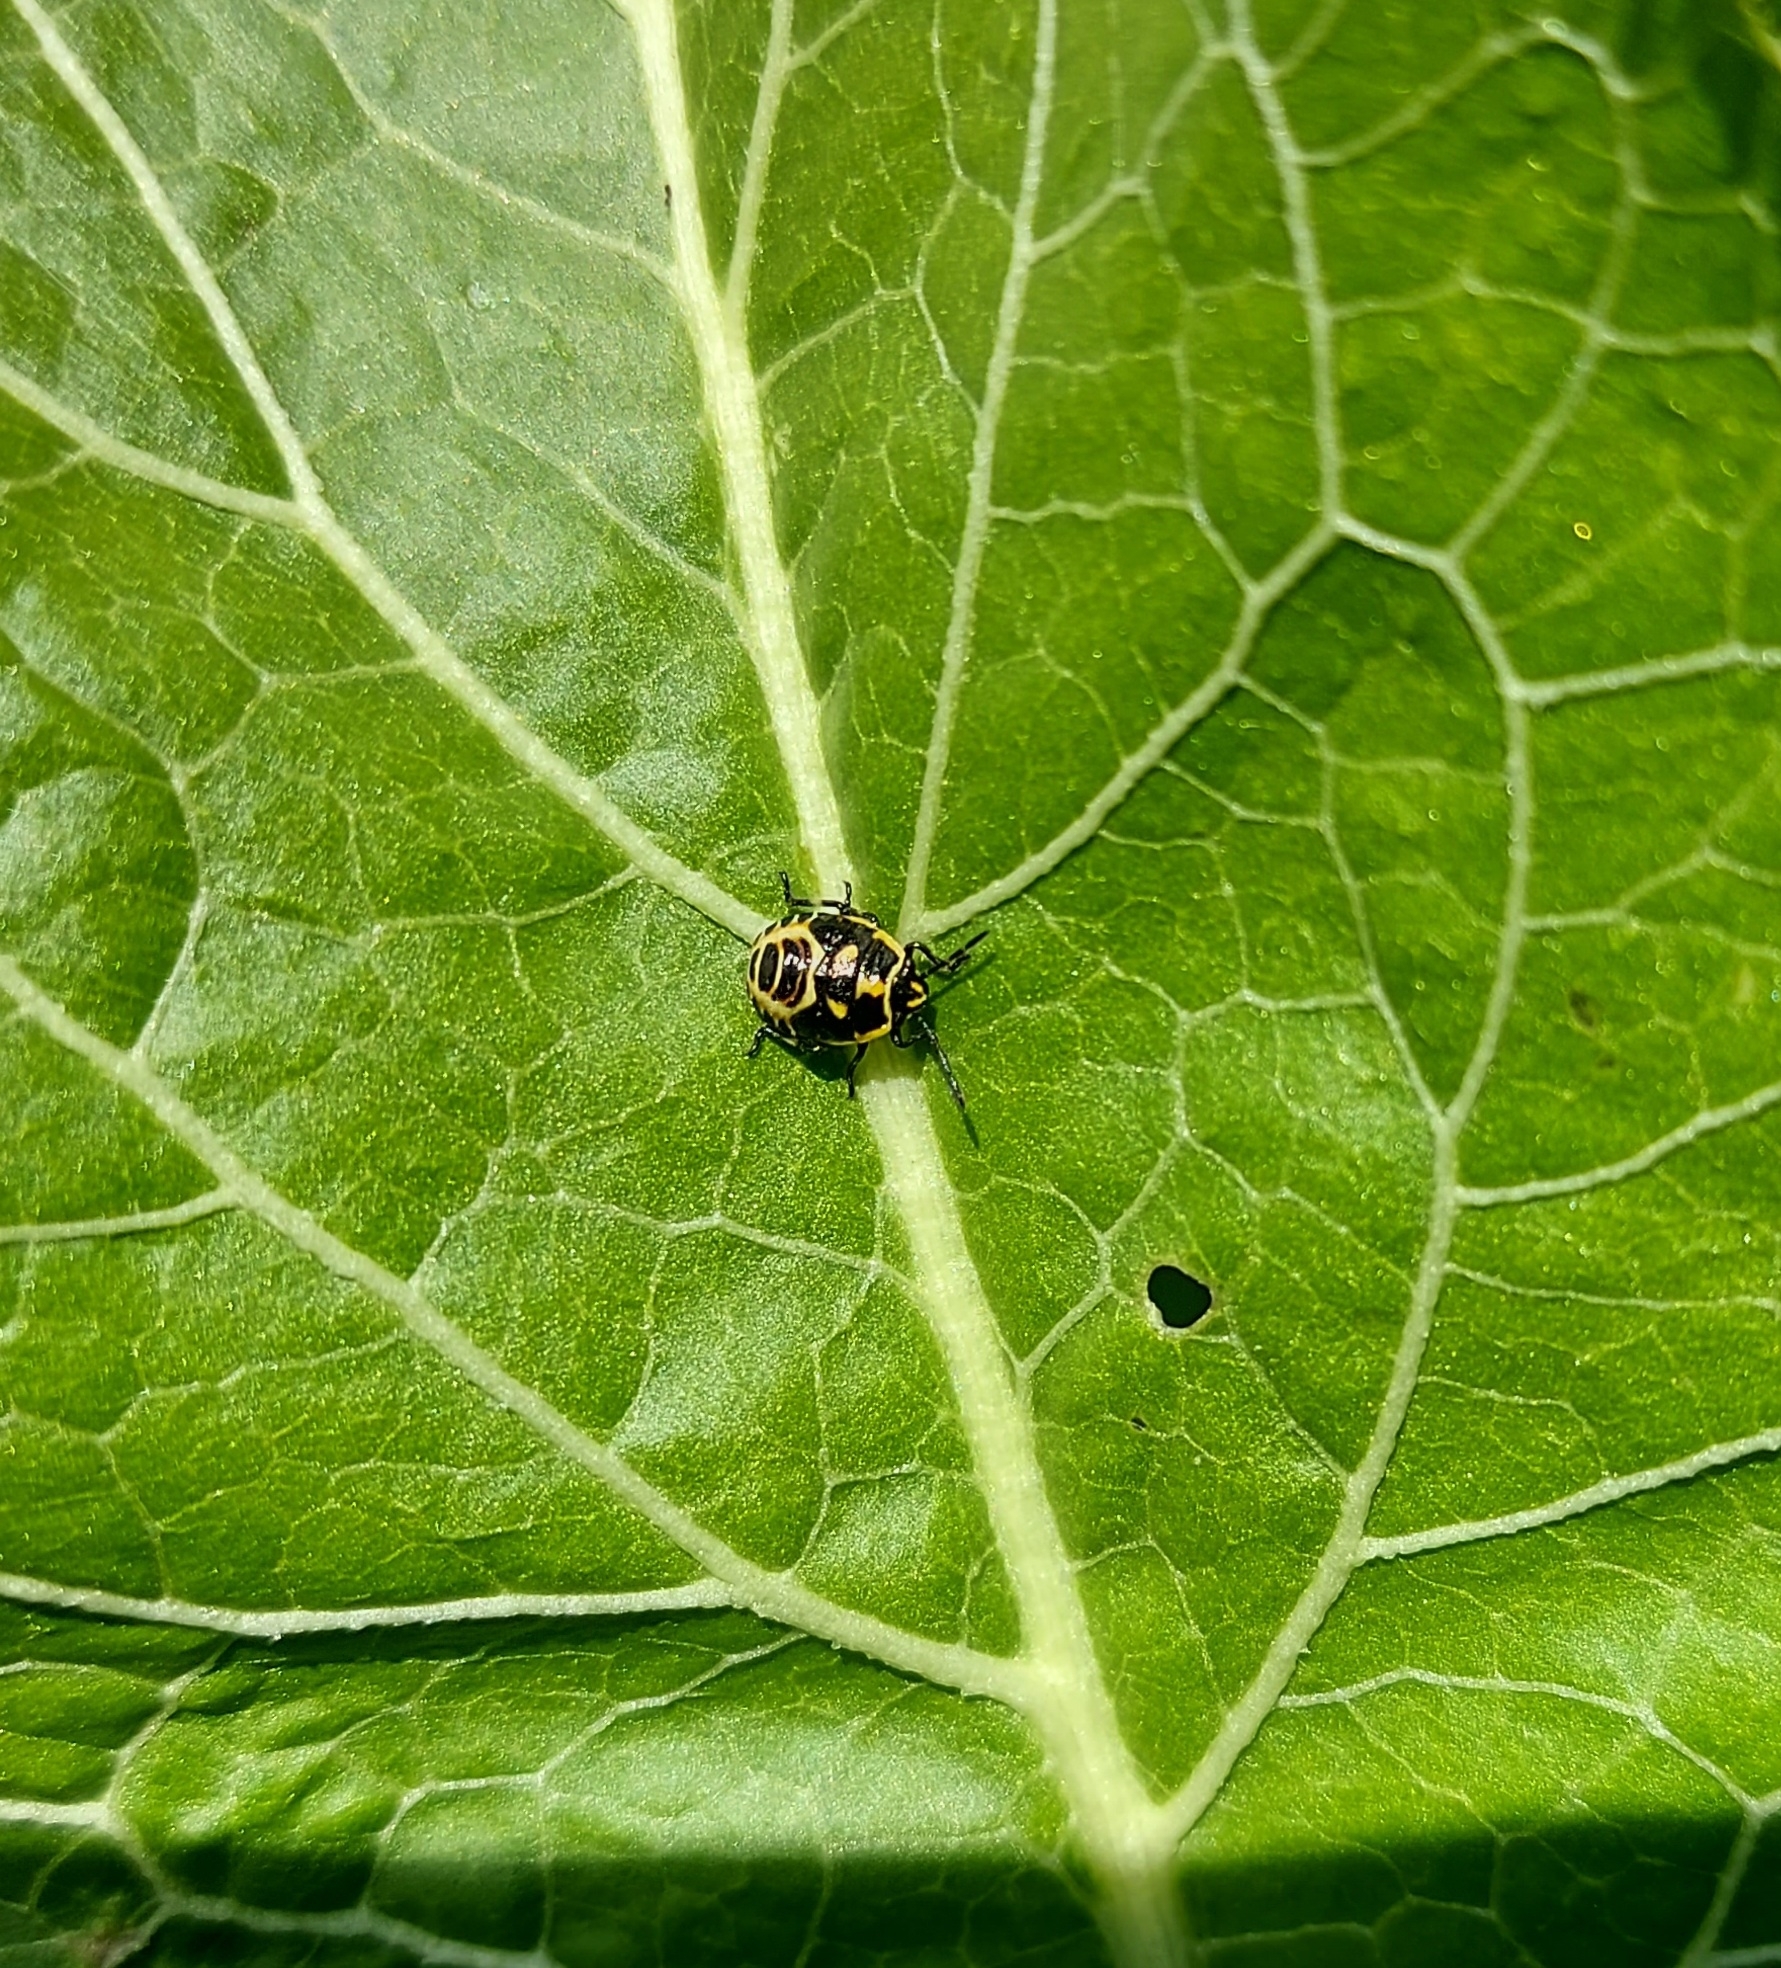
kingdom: Animalia
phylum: Arthropoda
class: Insecta
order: Hemiptera
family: Pentatomidae
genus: Eurydema
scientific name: Eurydema oleracea
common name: Cabbage bug
